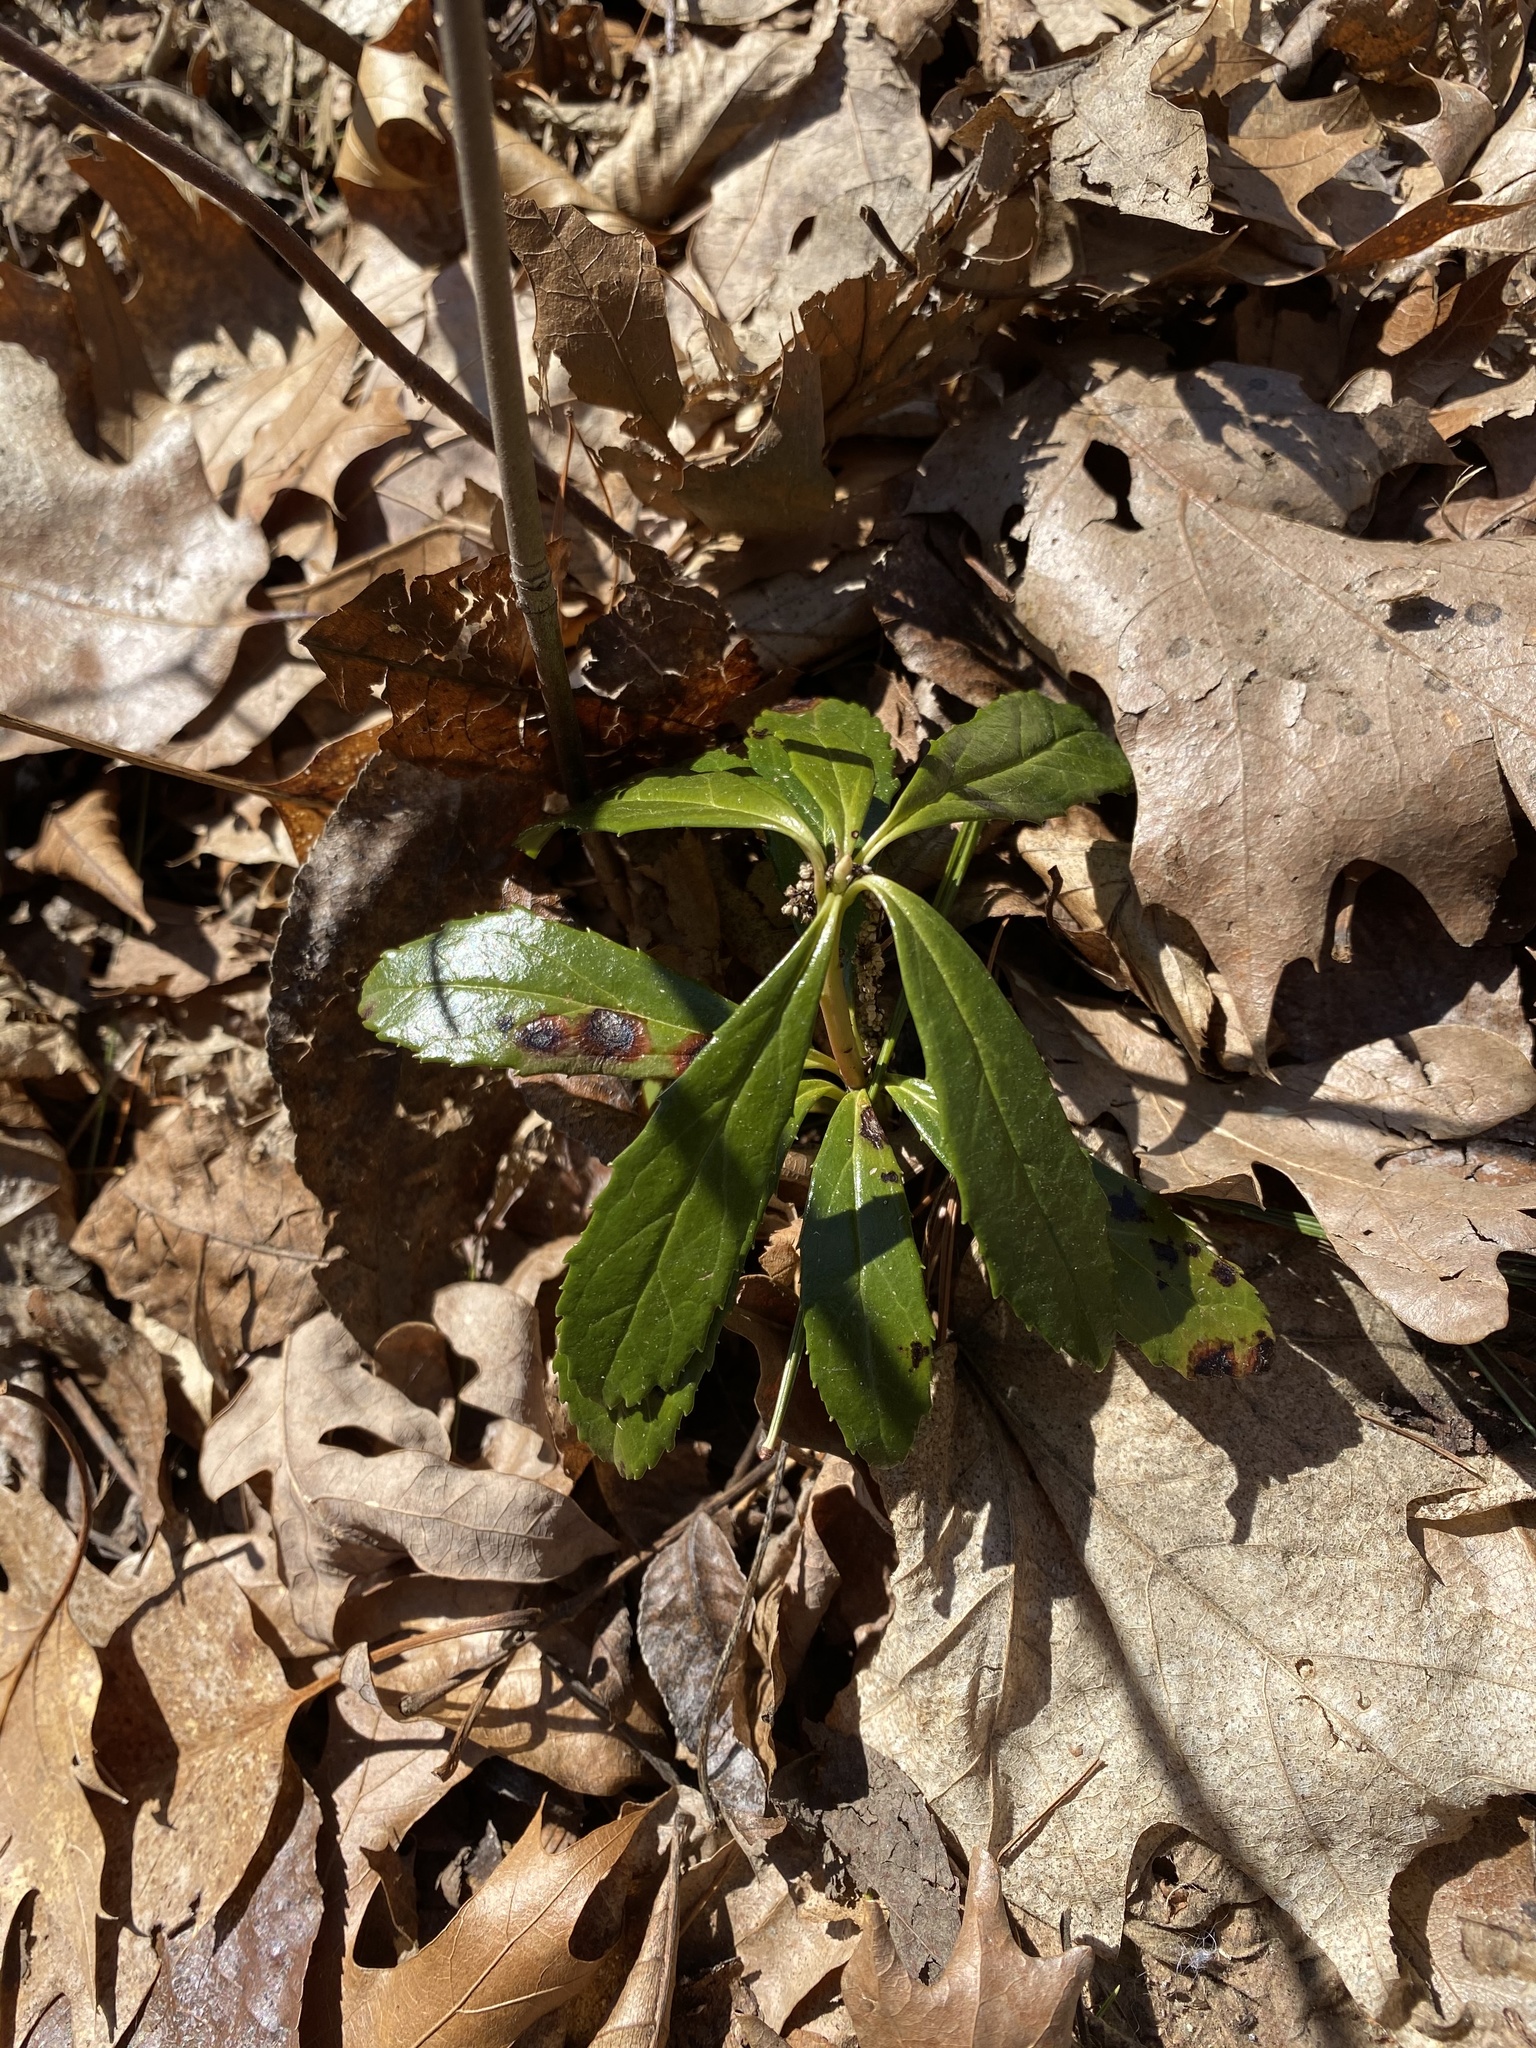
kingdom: Plantae
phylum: Tracheophyta
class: Magnoliopsida
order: Ericales
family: Ericaceae
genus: Chimaphila
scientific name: Chimaphila umbellata
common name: Pipsissewa
